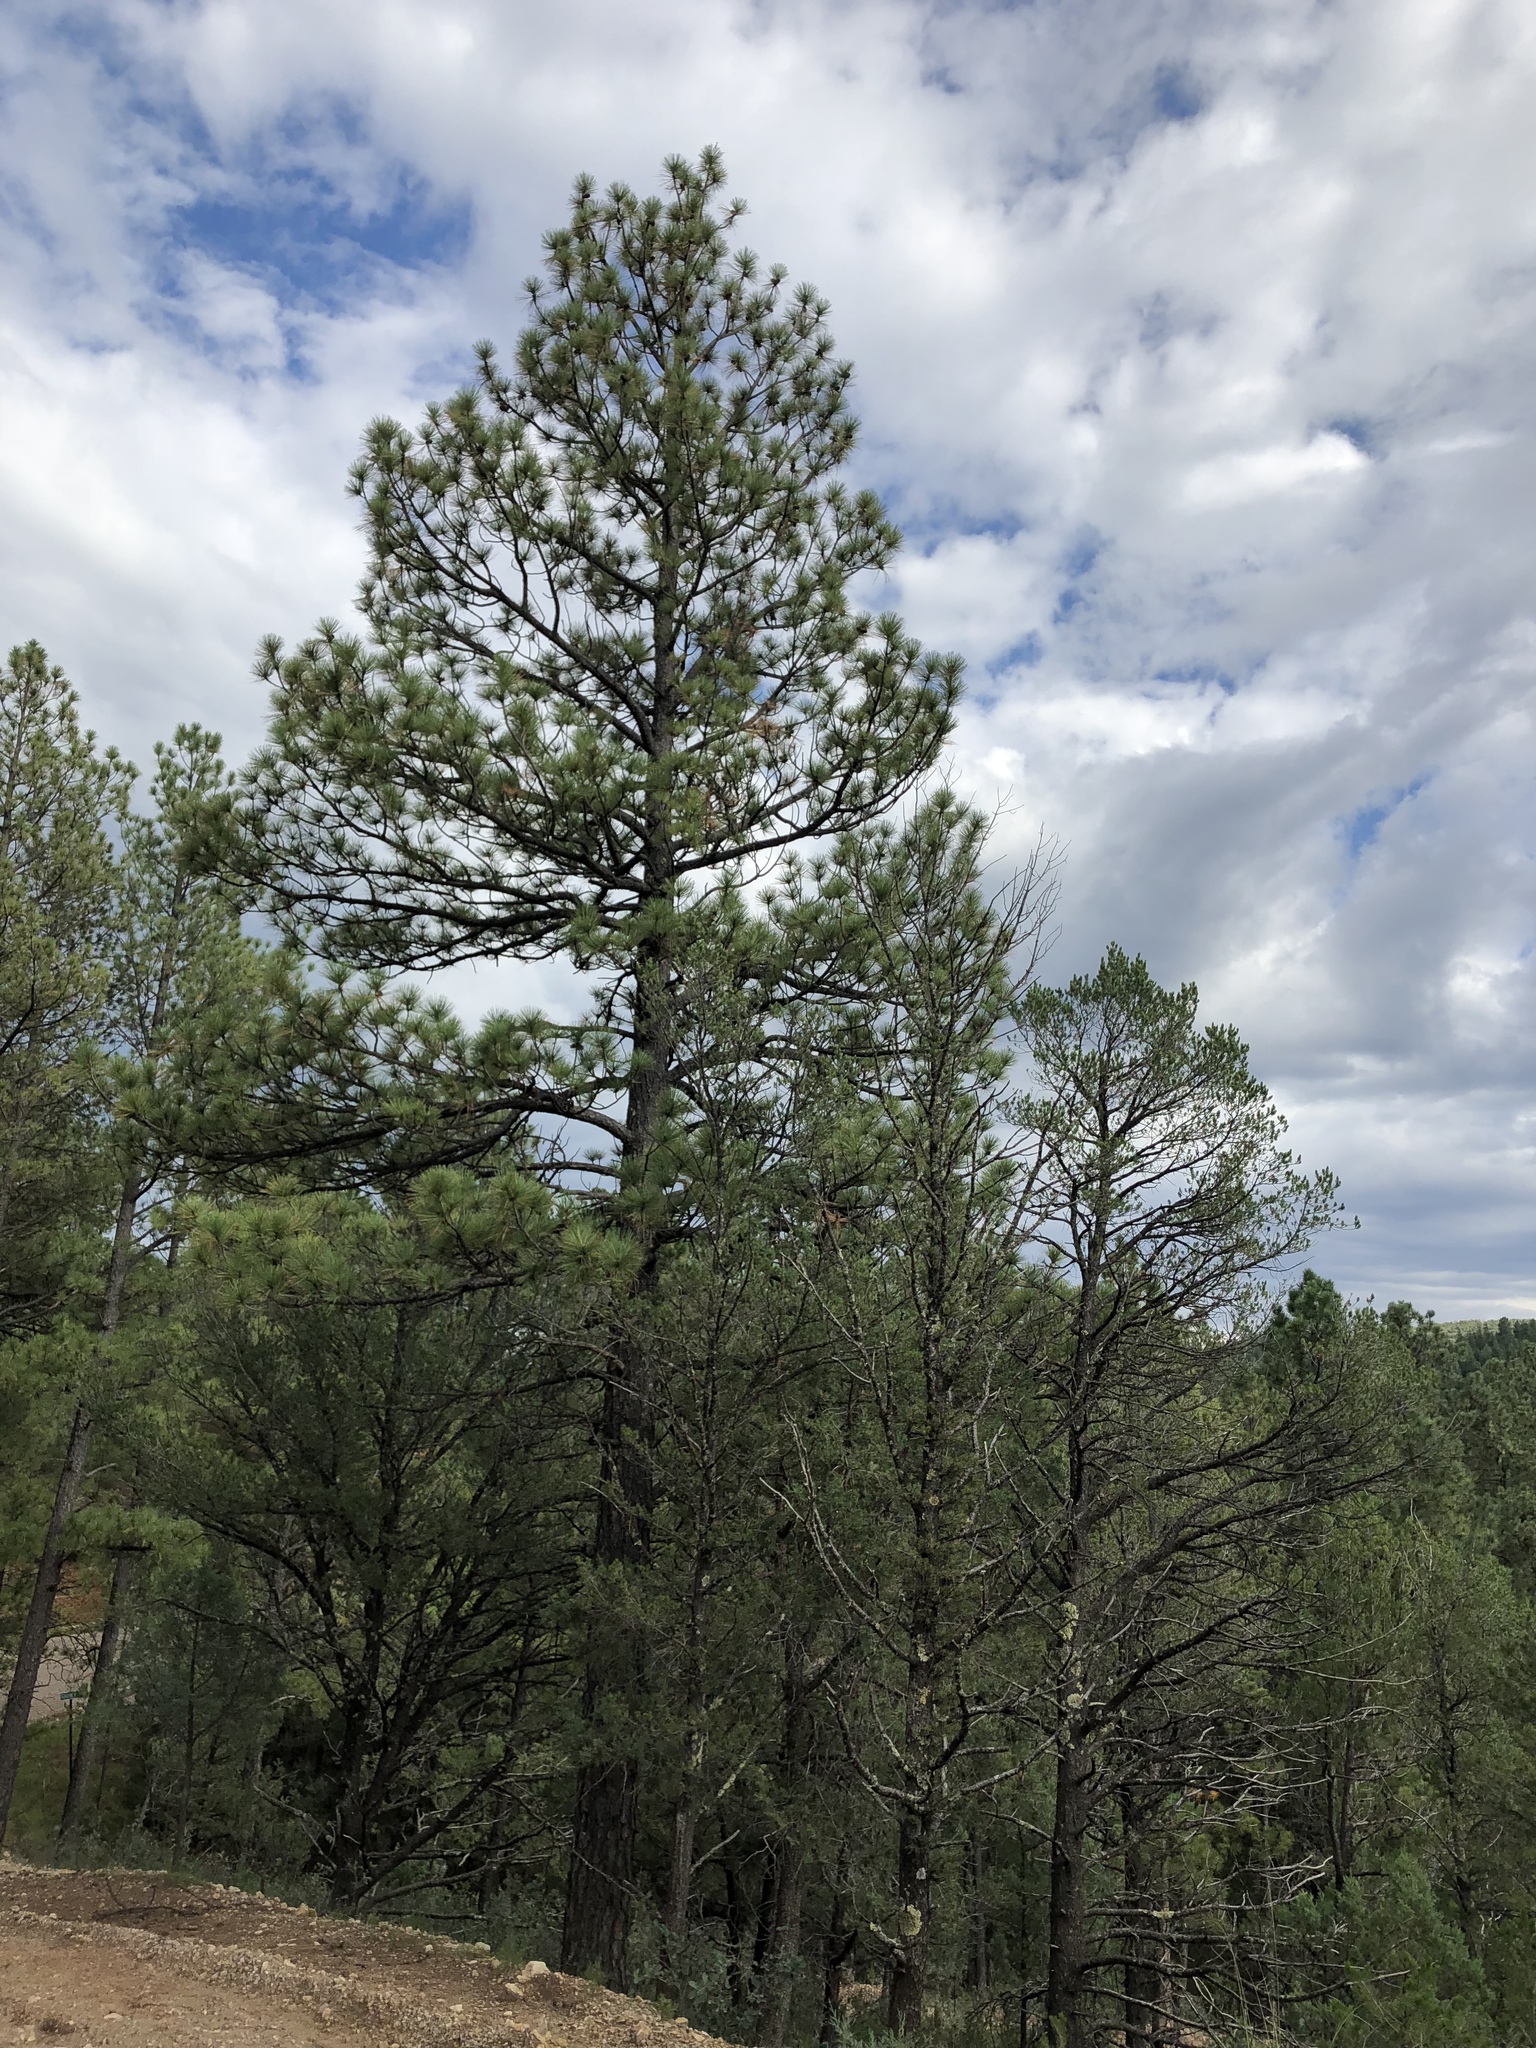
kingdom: Plantae
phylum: Tracheophyta
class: Pinopsida
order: Pinales
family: Pinaceae
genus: Pinus
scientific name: Pinus ponderosa
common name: Western yellow-pine
